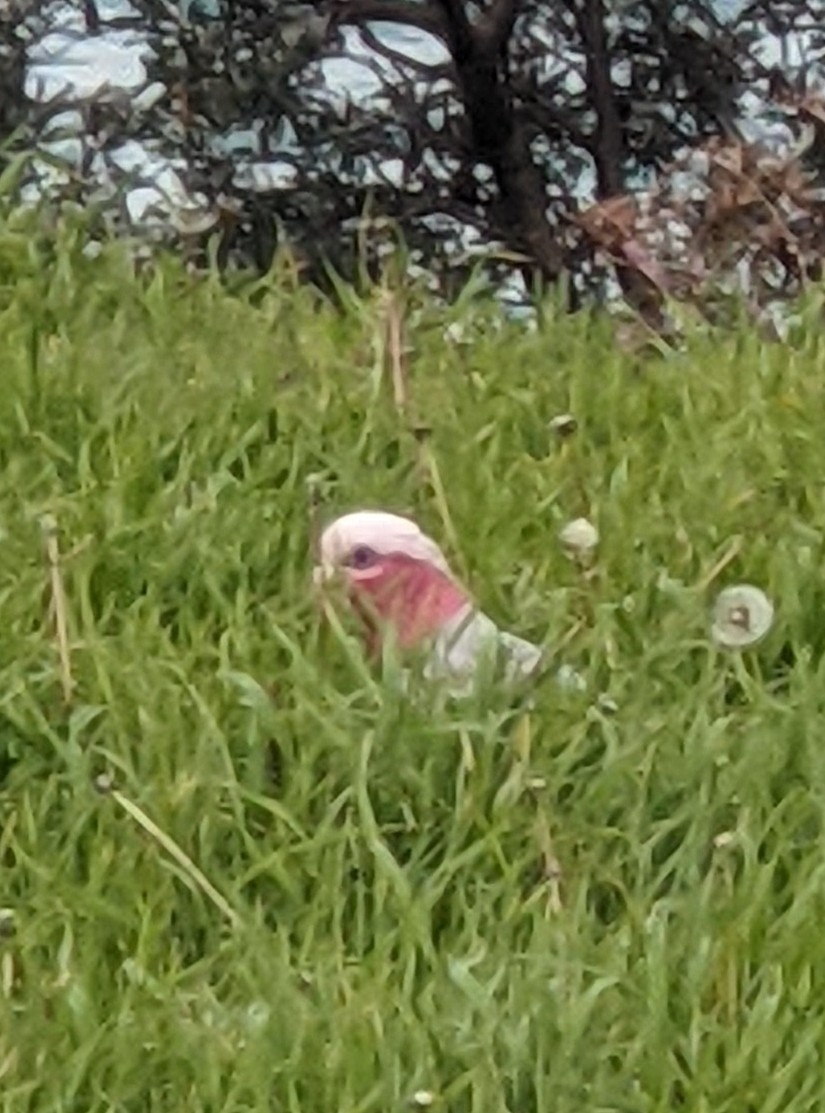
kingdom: Animalia
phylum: Chordata
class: Aves
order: Psittaciformes
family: Psittacidae
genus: Eolophus
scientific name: Eolophus roseicapilla
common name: Galah
